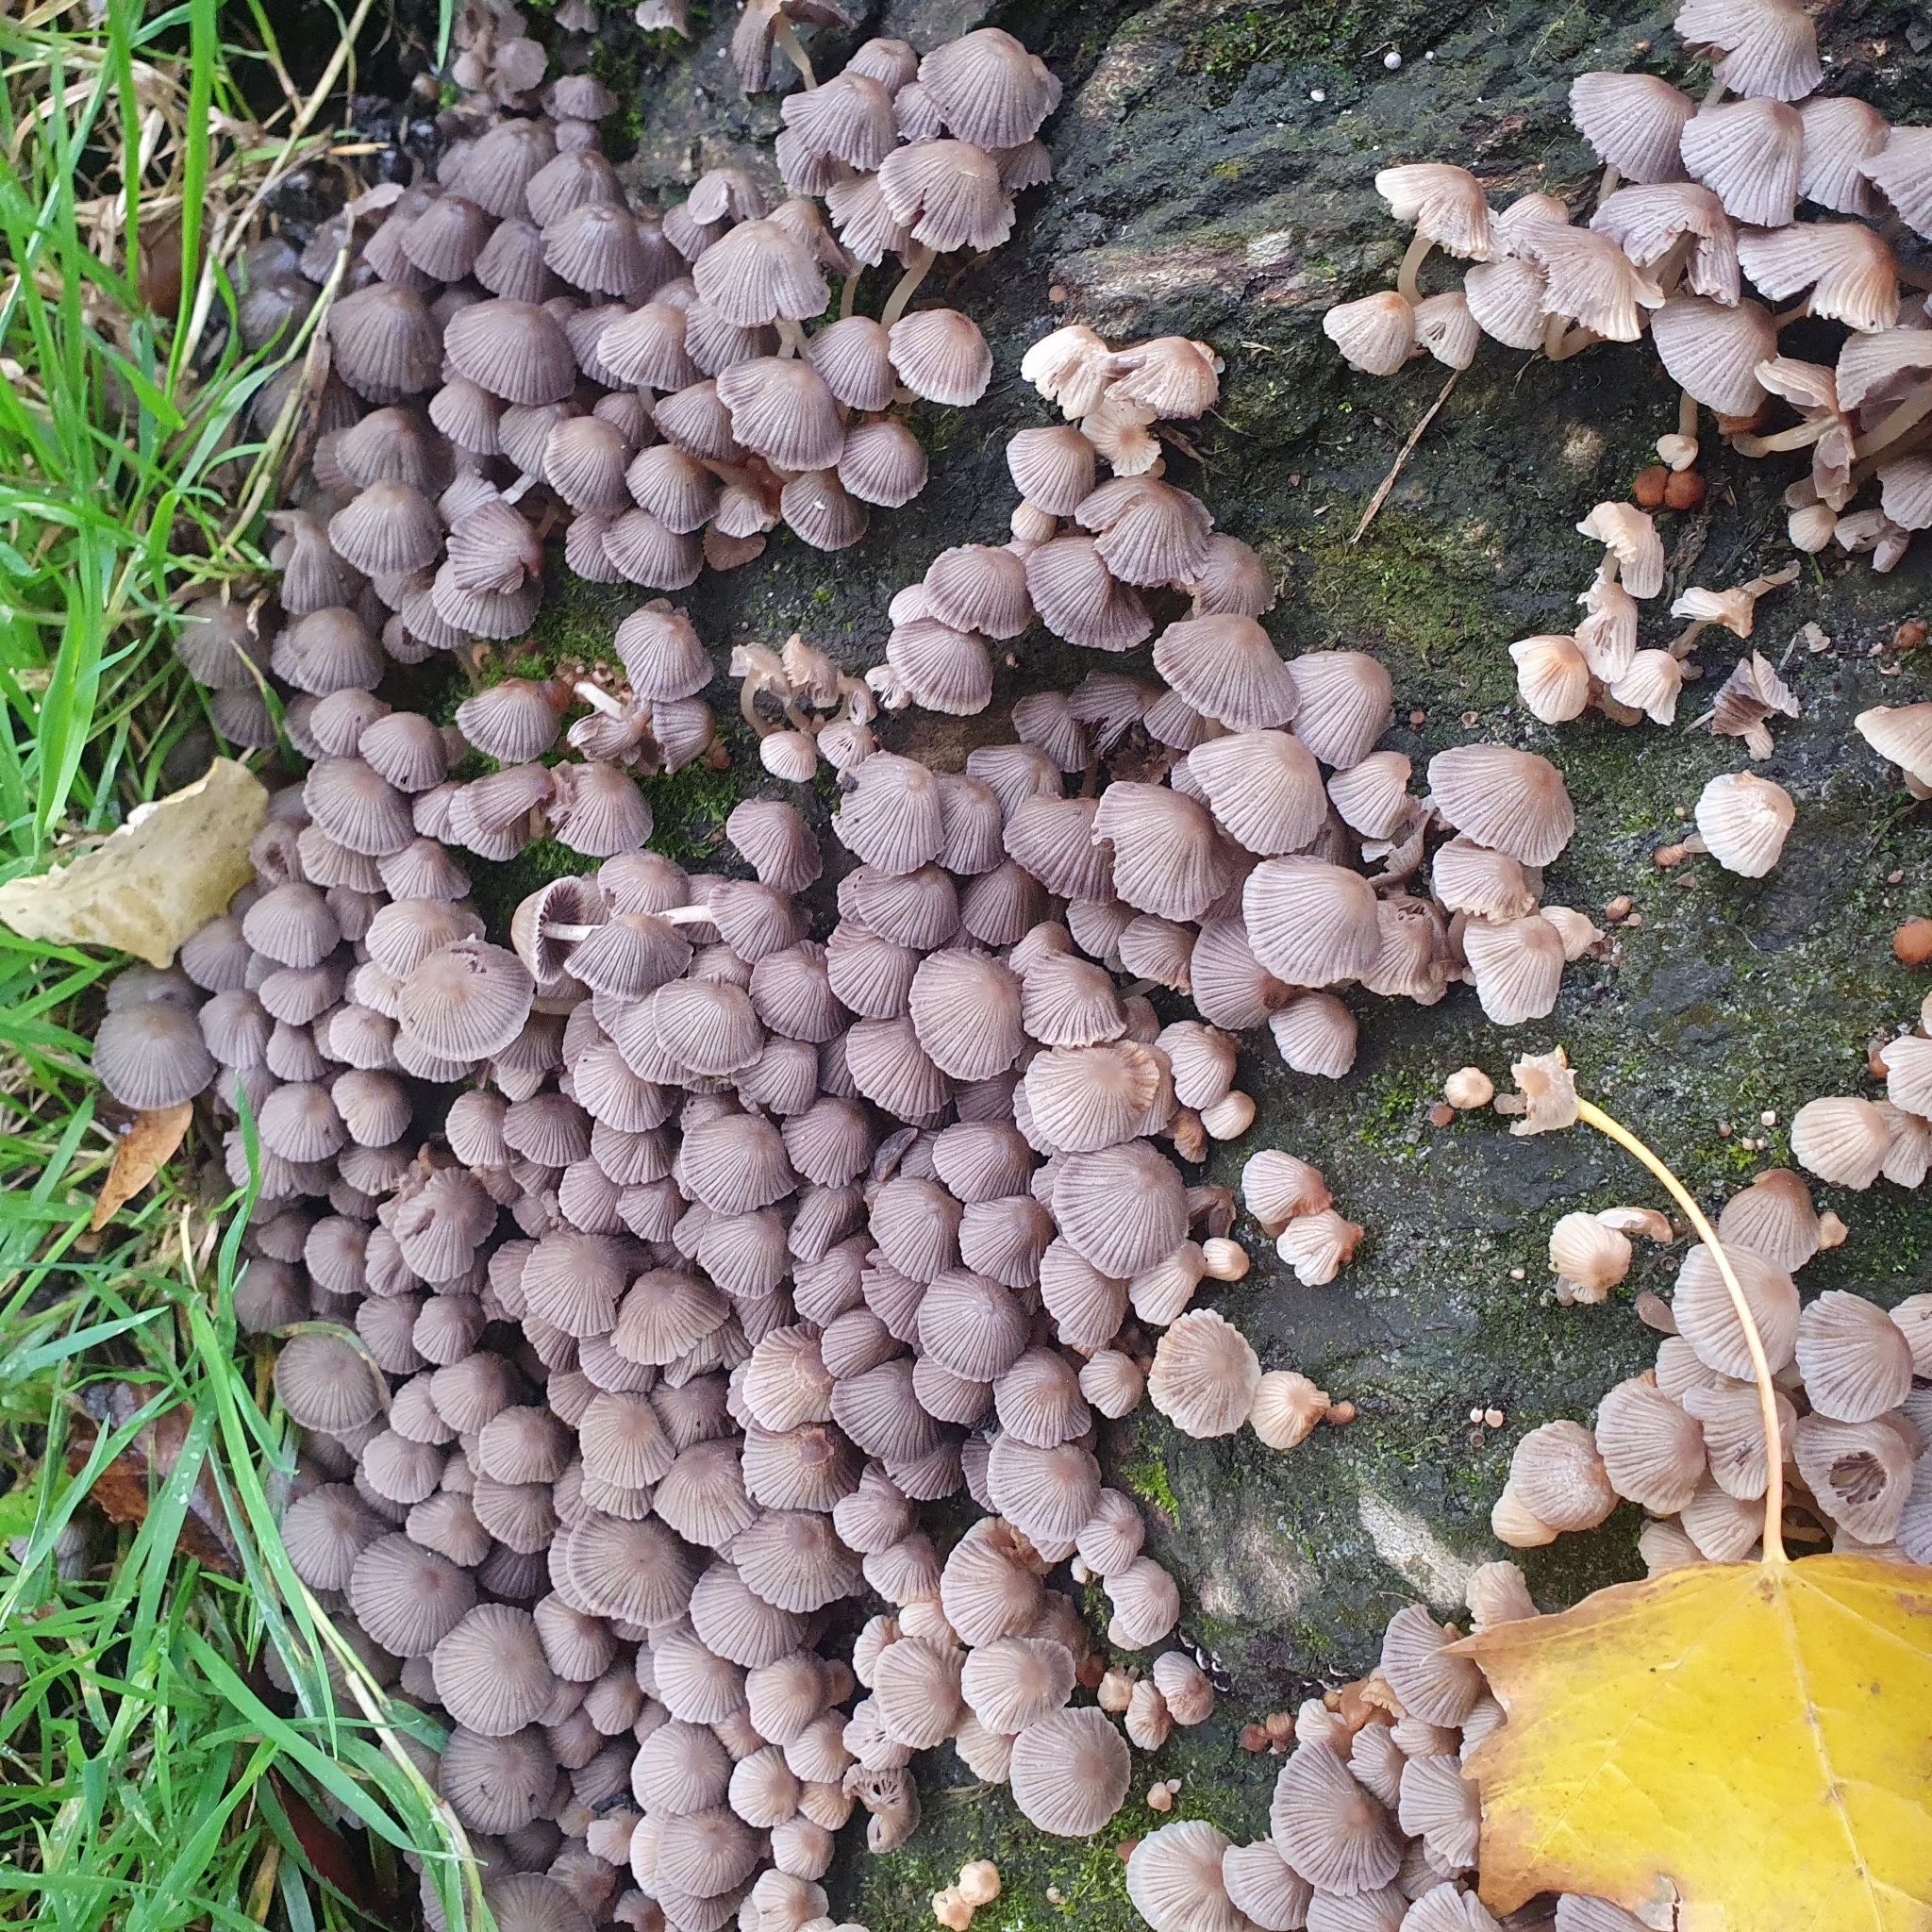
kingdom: Fungi
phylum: Basidiomycota
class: Agaricomycetes
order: Agaricales
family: Psathyrellaceae
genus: Coprinellus
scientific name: Coprinellus disseminatus
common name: Fairies' bonnets
